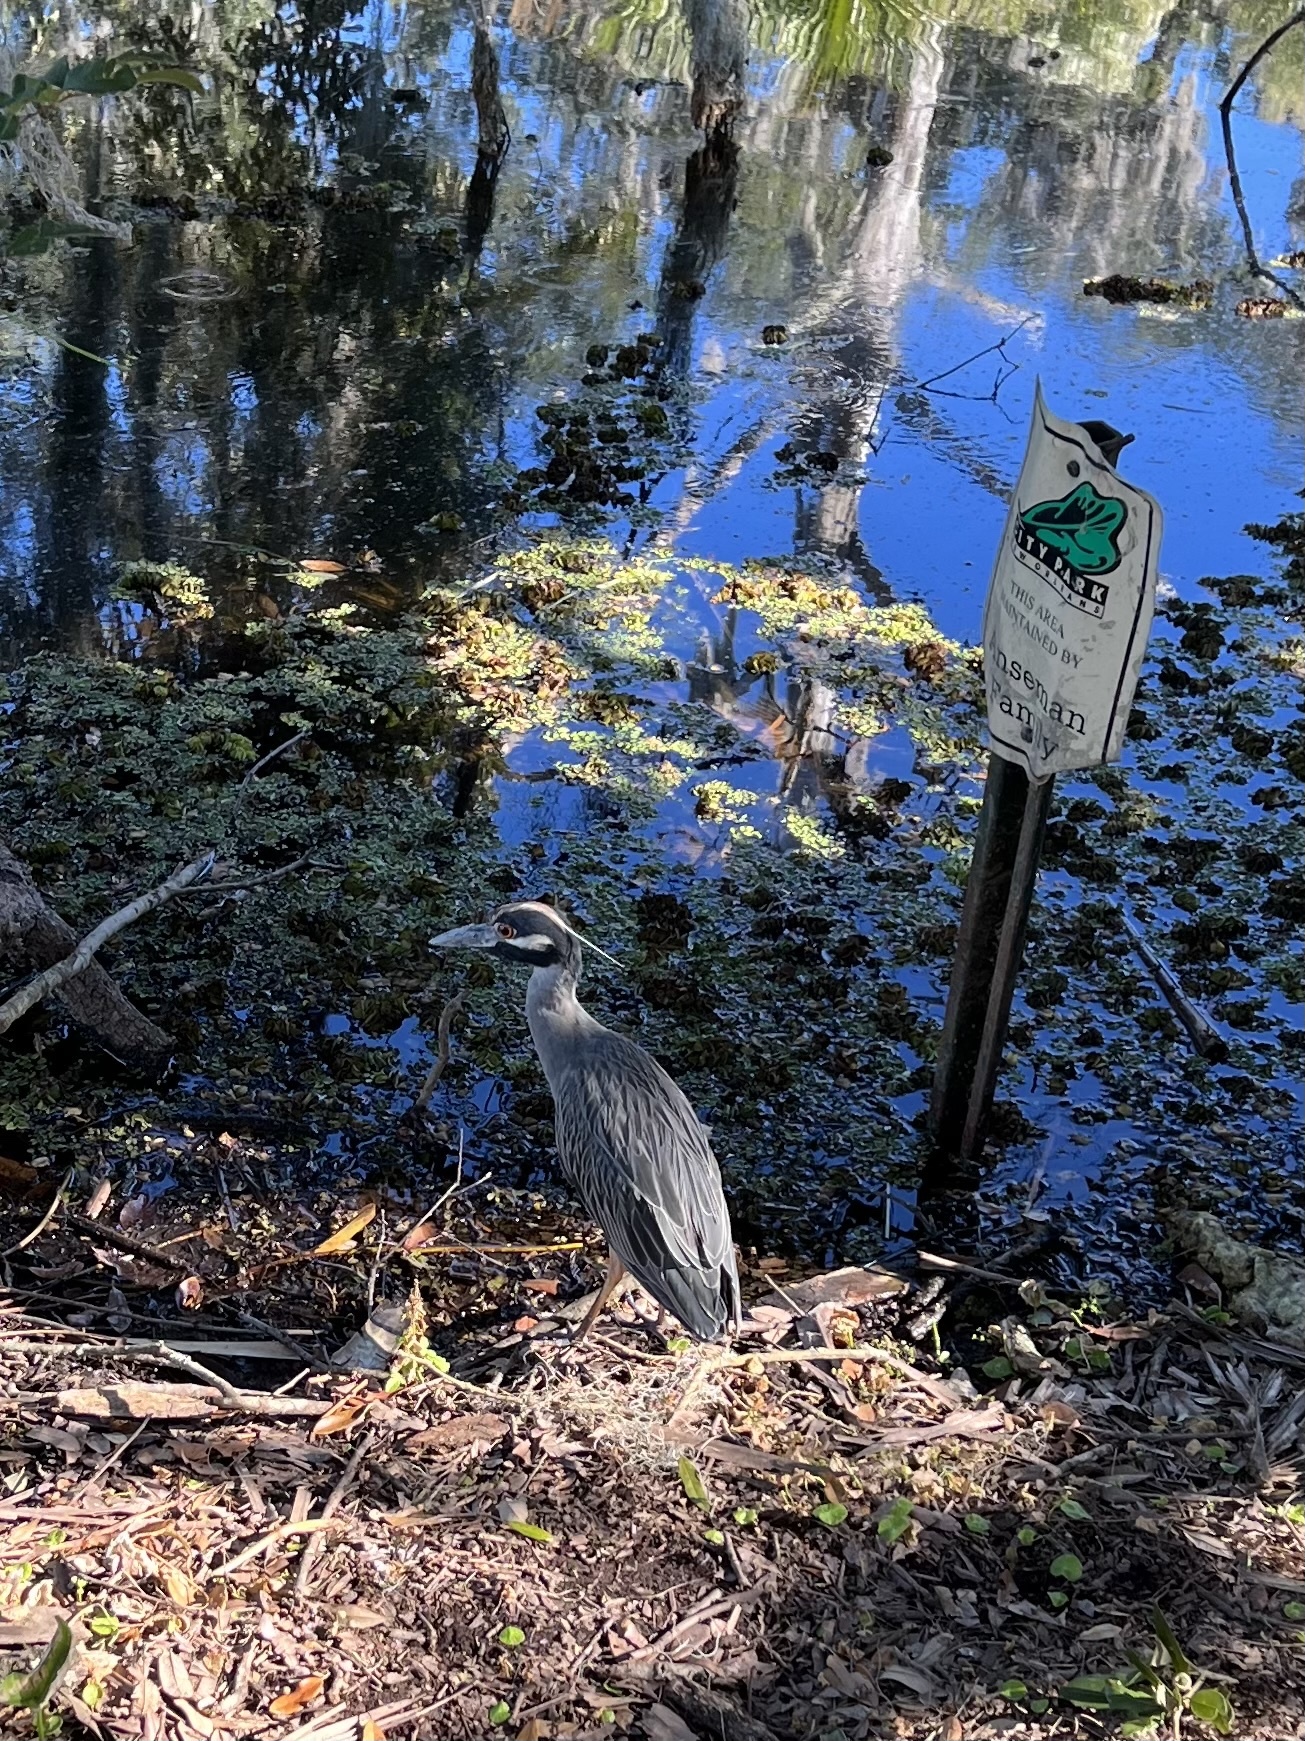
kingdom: Animalia
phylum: Chordata
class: Aves
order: Pelecaniformes
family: Ardeidae
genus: Nyctanassa
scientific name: Nyctanassa violacea
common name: Yellow-crowned night heron
